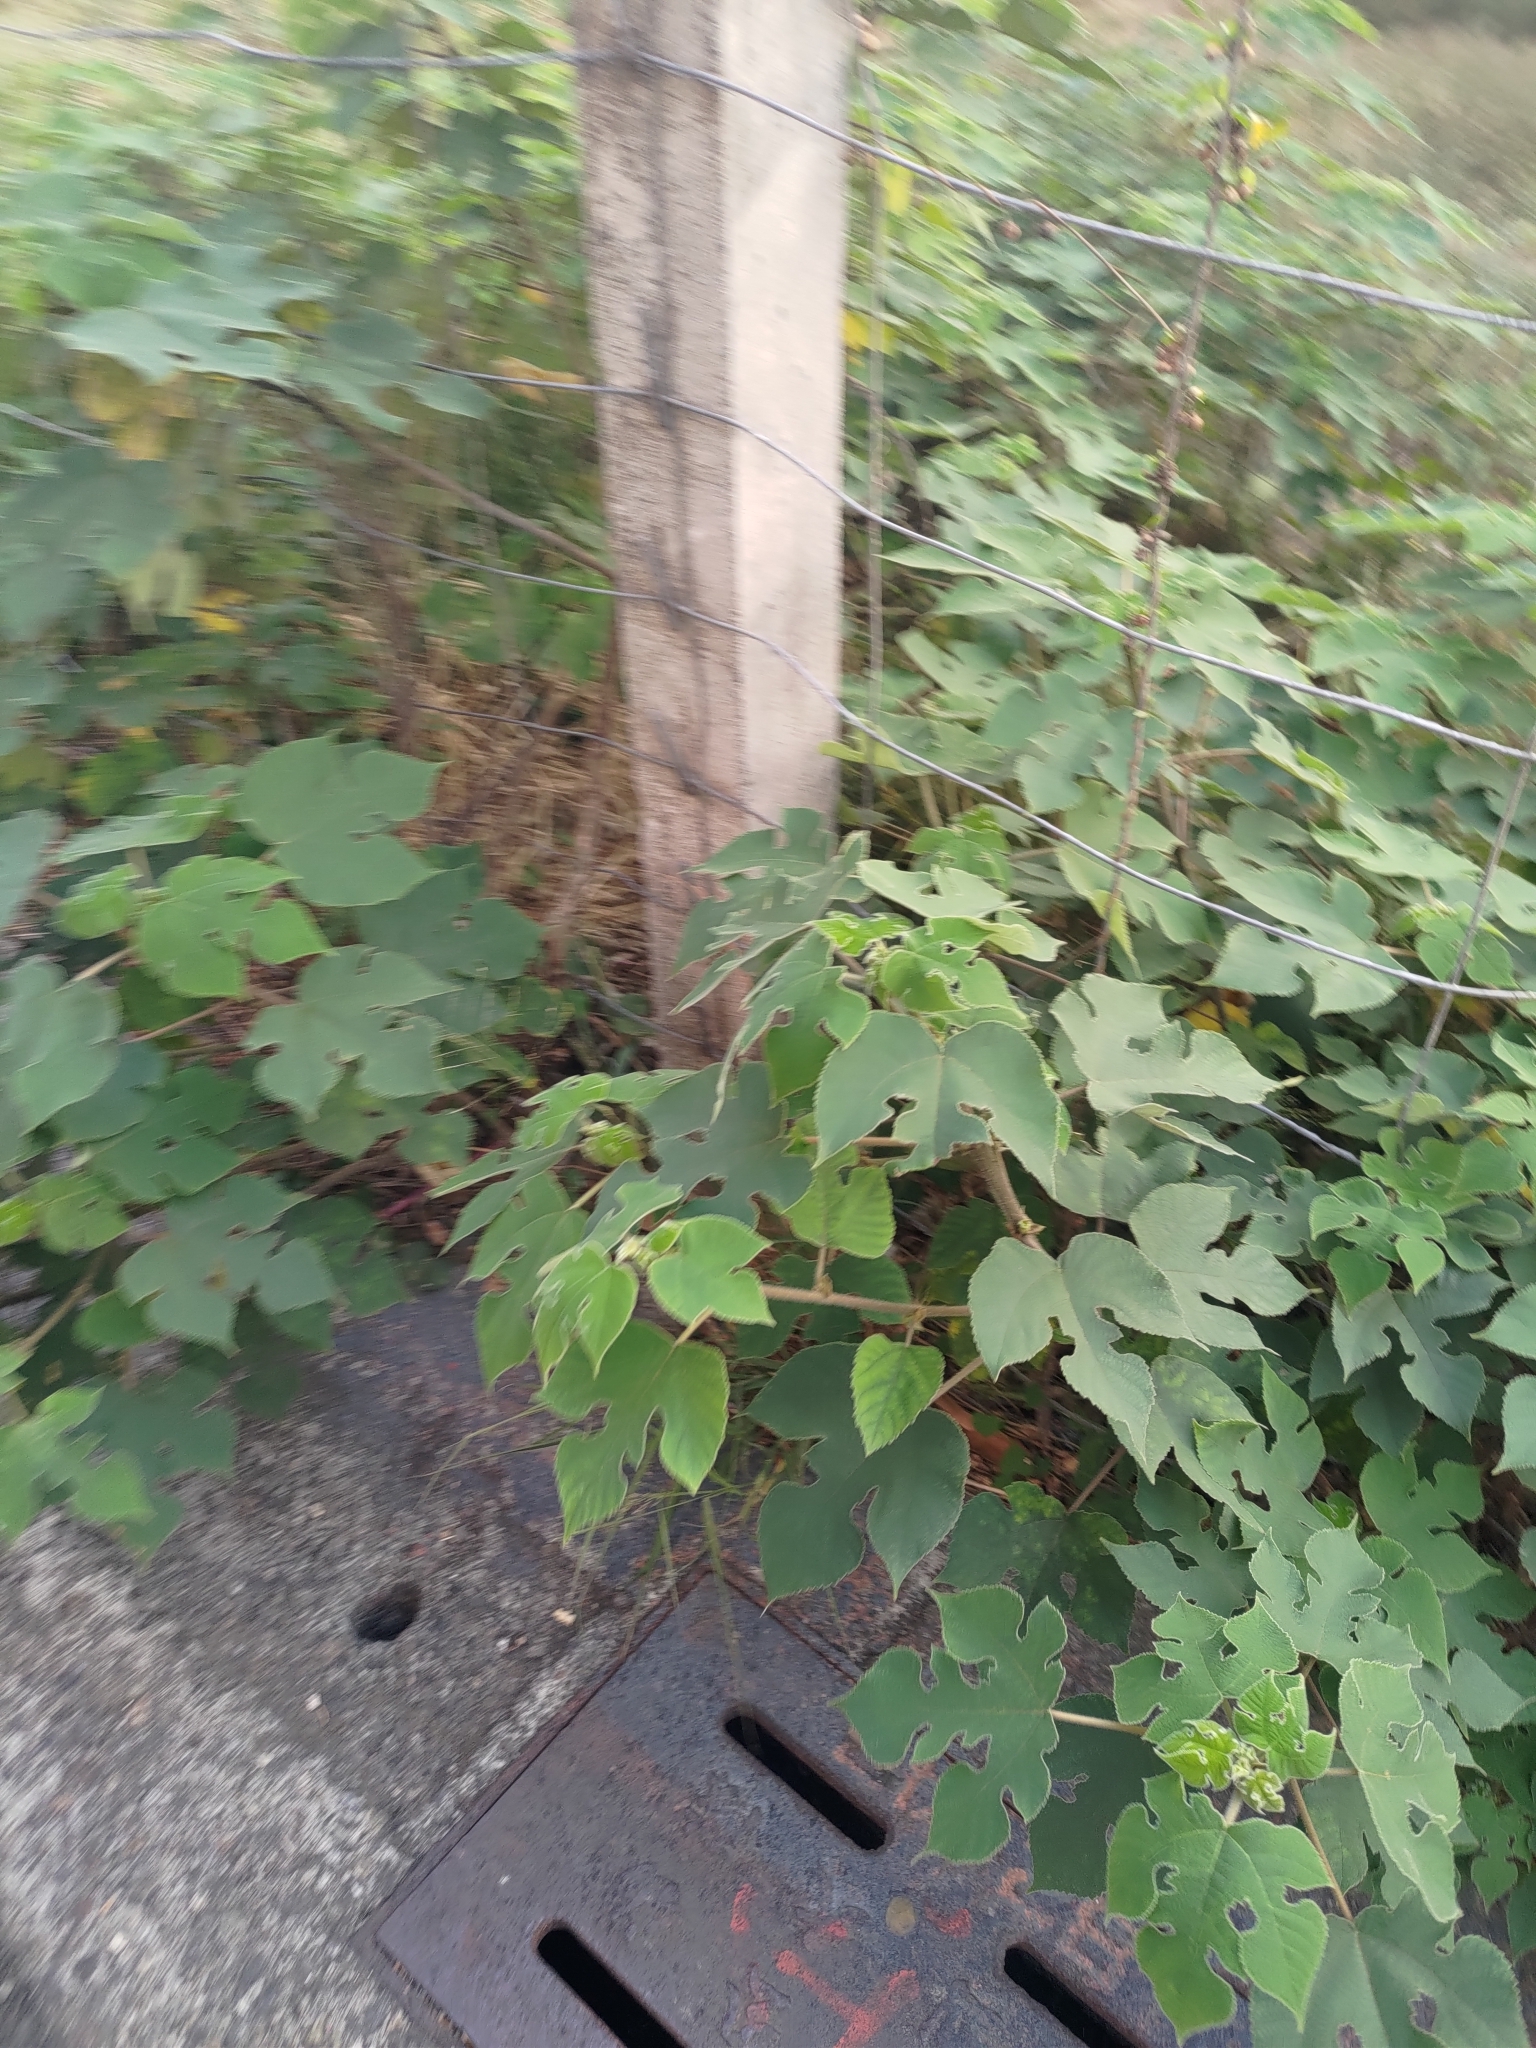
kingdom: Plantae
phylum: Tracheophyta
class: Magnoliopsida
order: Rosales
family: Moraceae
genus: Broussonetia
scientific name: Broussonetia papyrifera
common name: Paper mulberry
